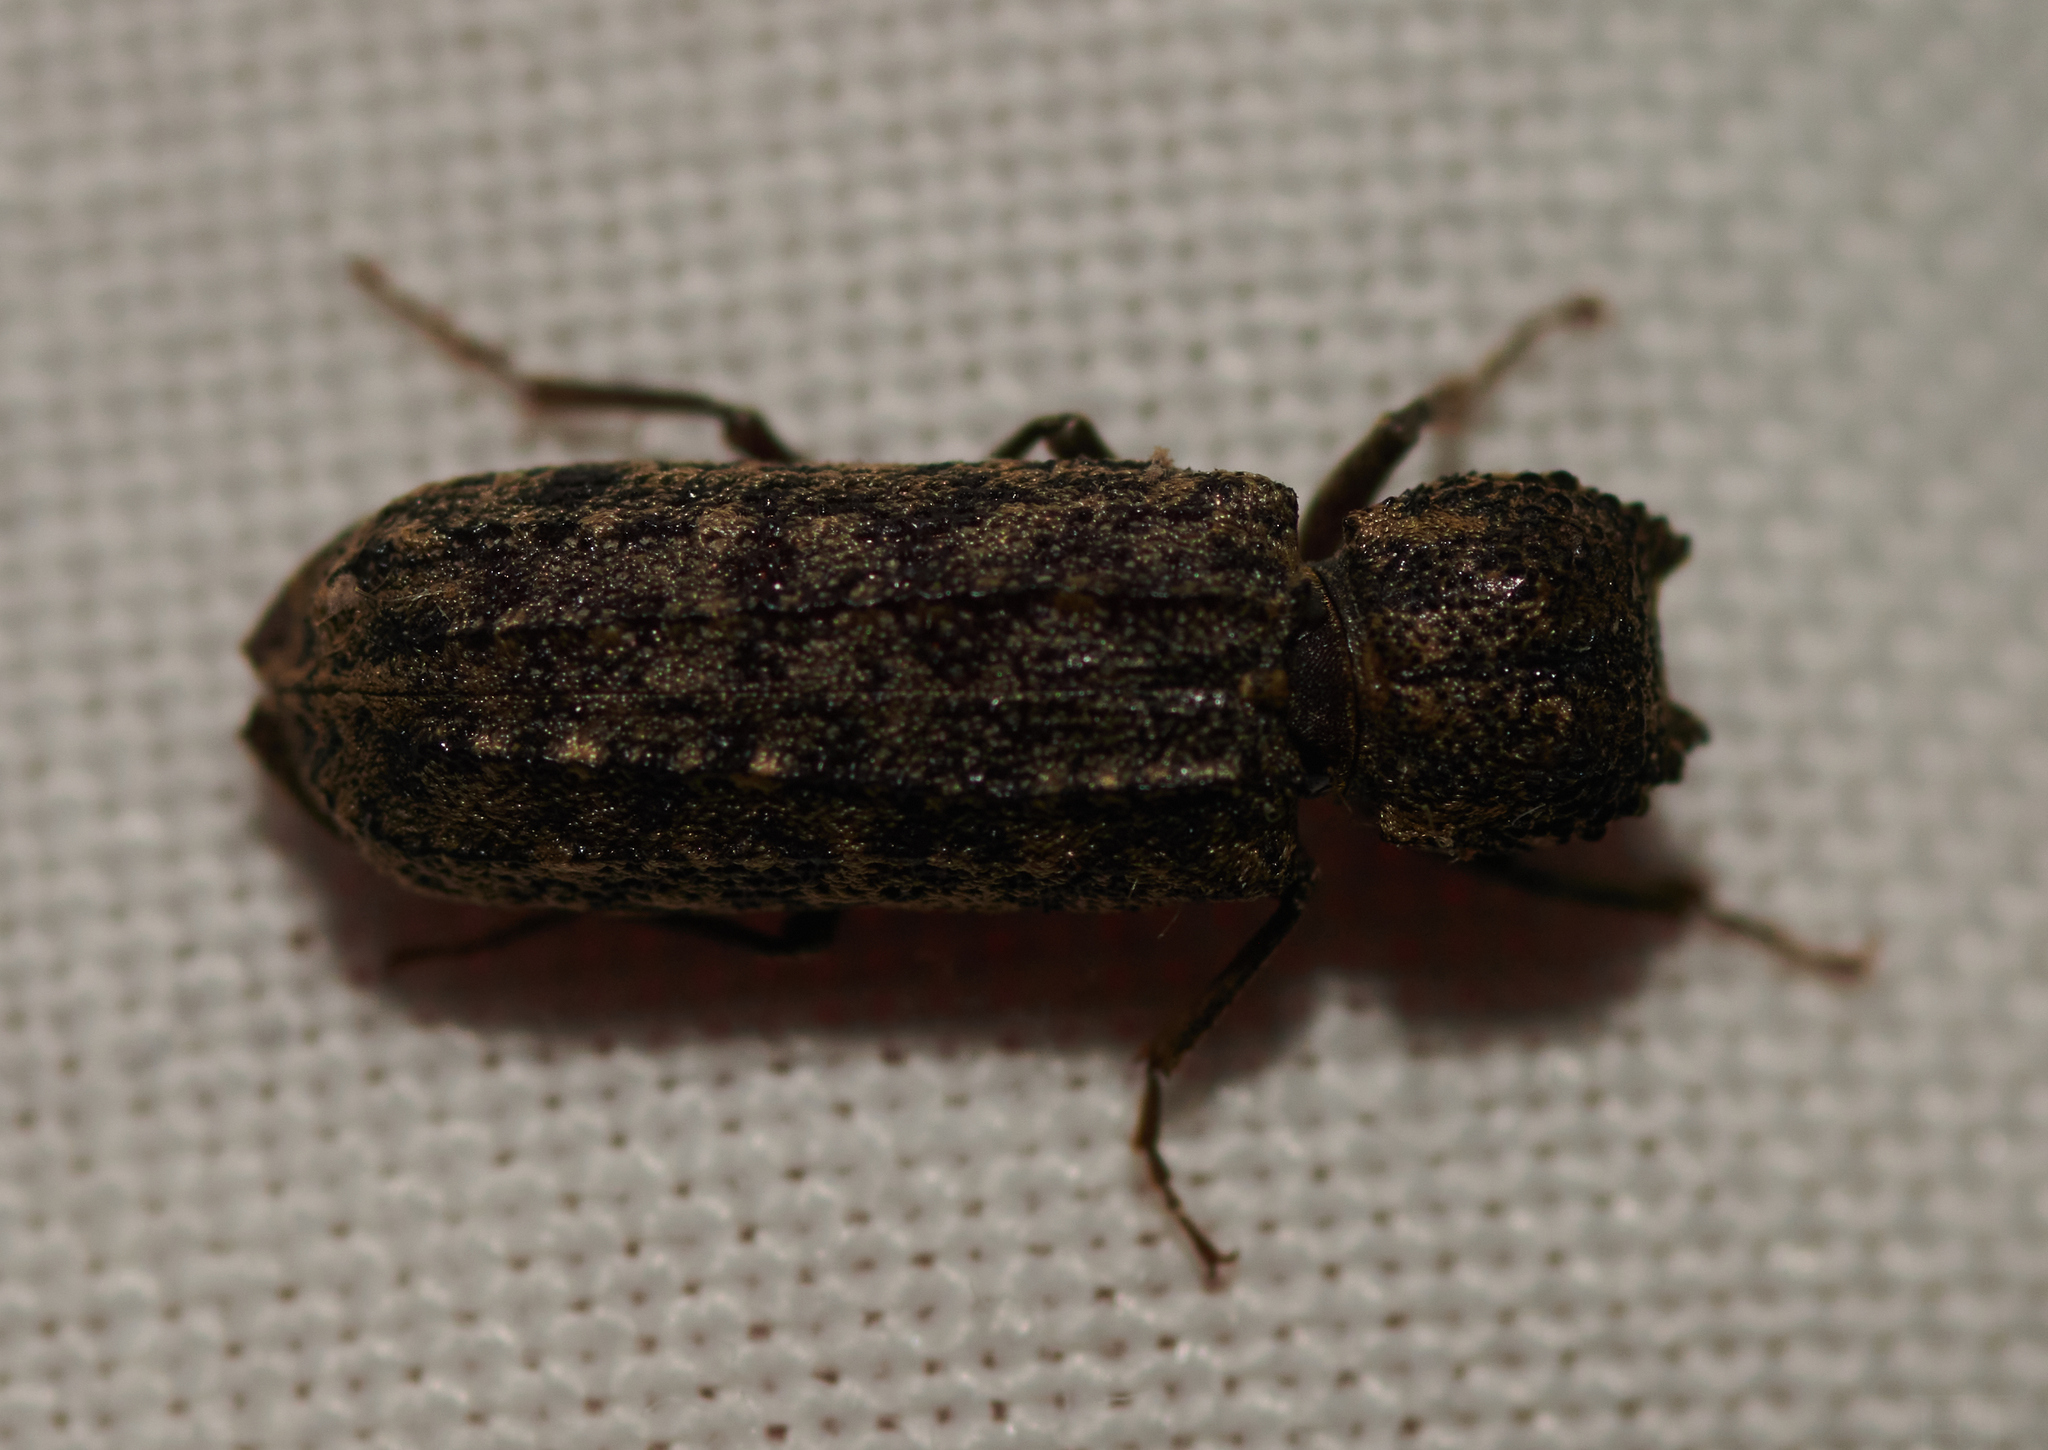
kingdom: Animalia
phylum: Arthropoda
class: Insecta
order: Coleoptera
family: Bostrichidae
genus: Lichenophanes
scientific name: Lichenophanes bicornis
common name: Two-horned powder-post beetle
